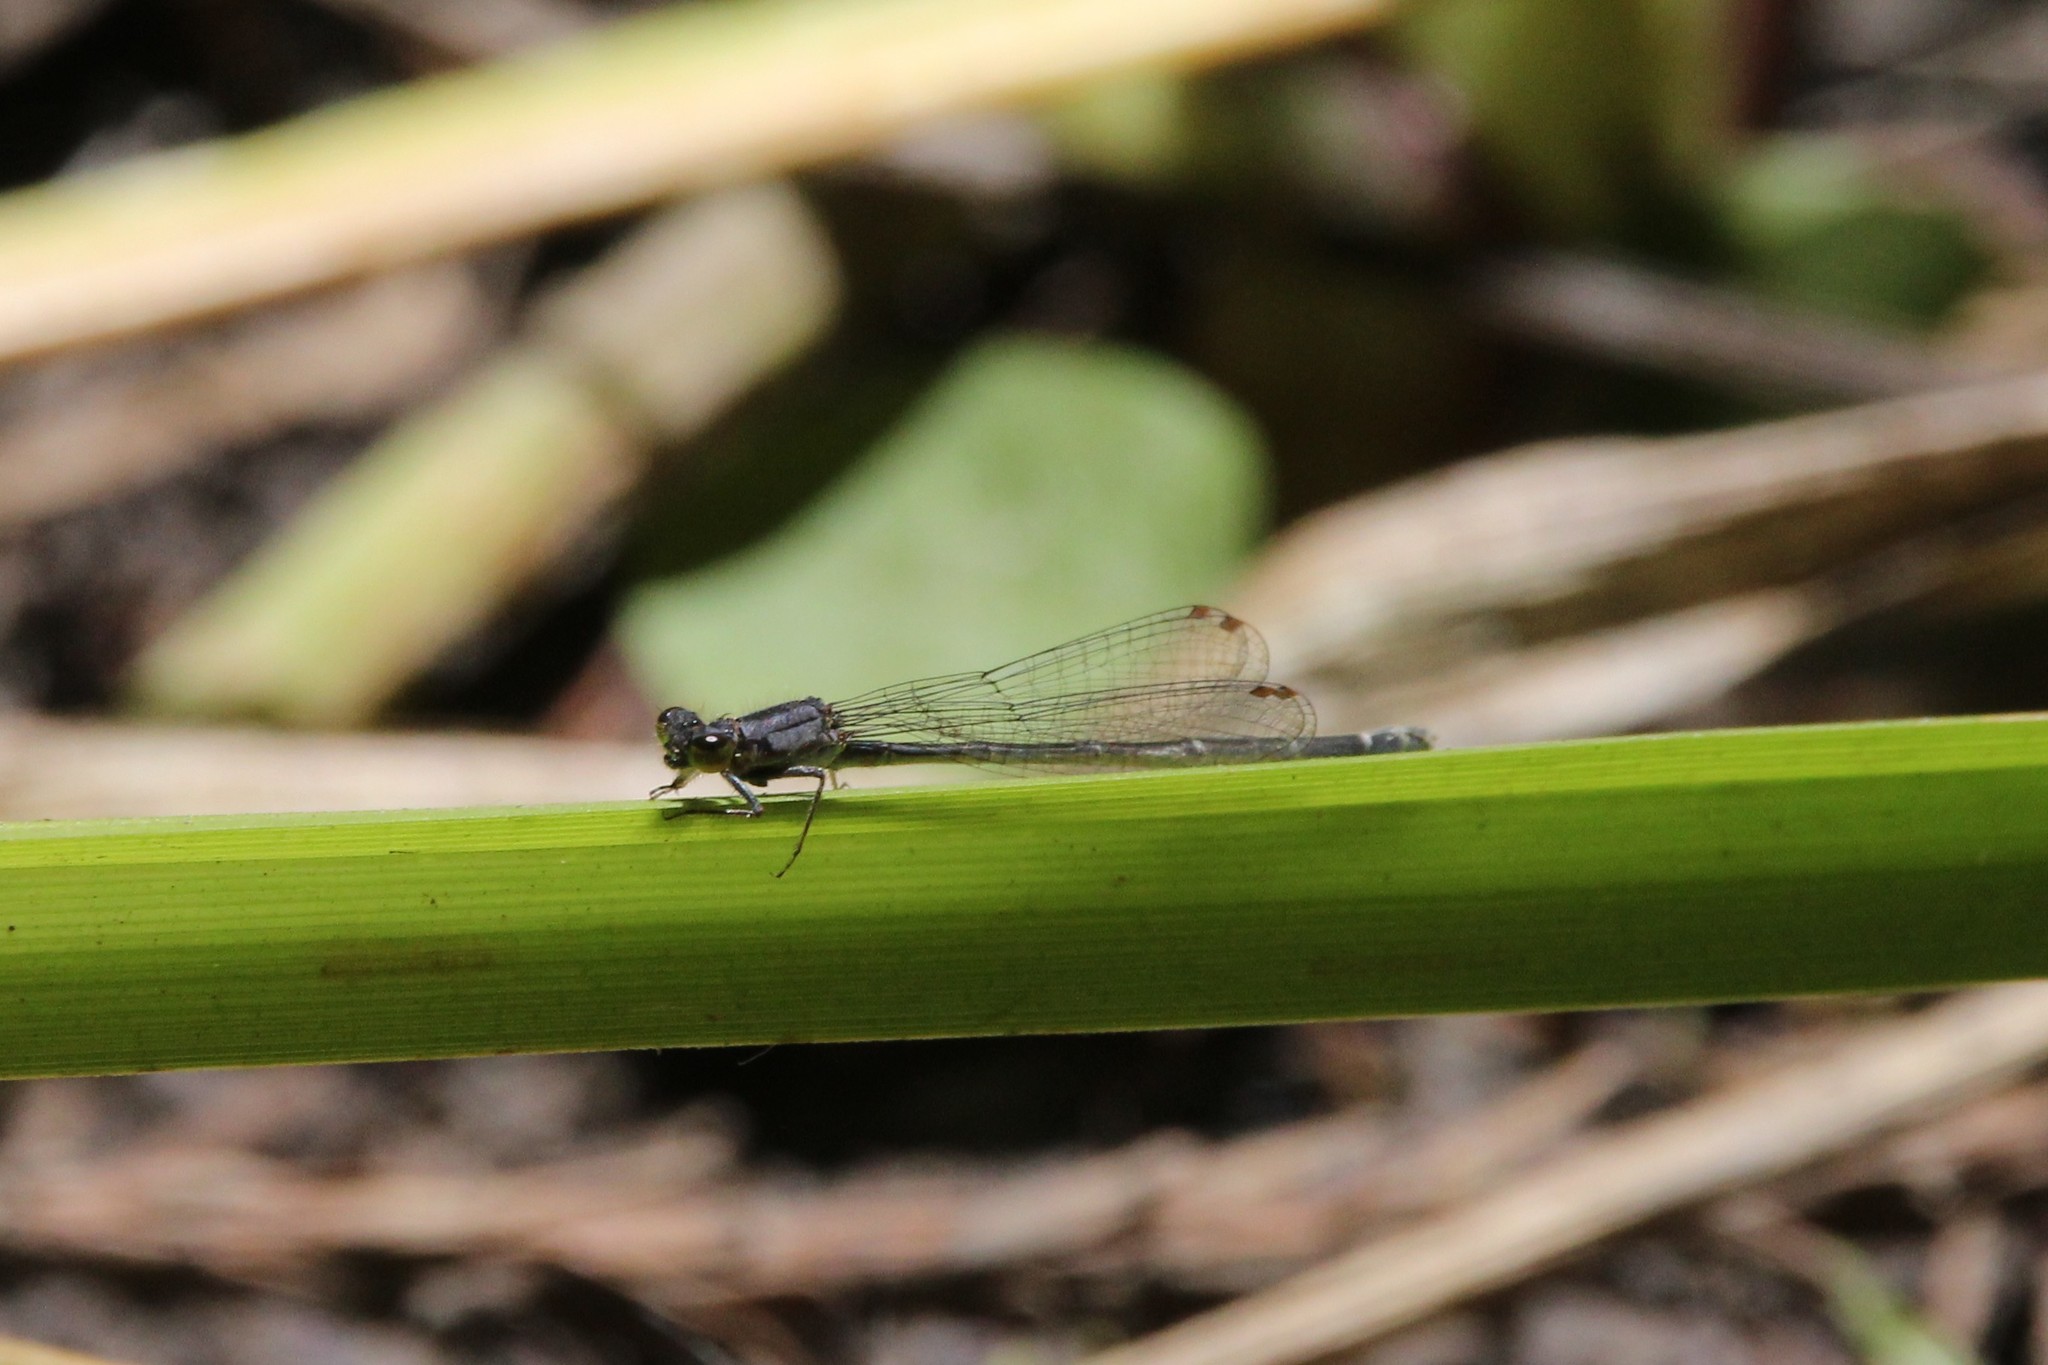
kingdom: Animalia
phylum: Arthropoda
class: Insecta
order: Odonata
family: Coenagrionidae
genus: Ischnura
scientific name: Ischnura cervula
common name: Pacific forktail
